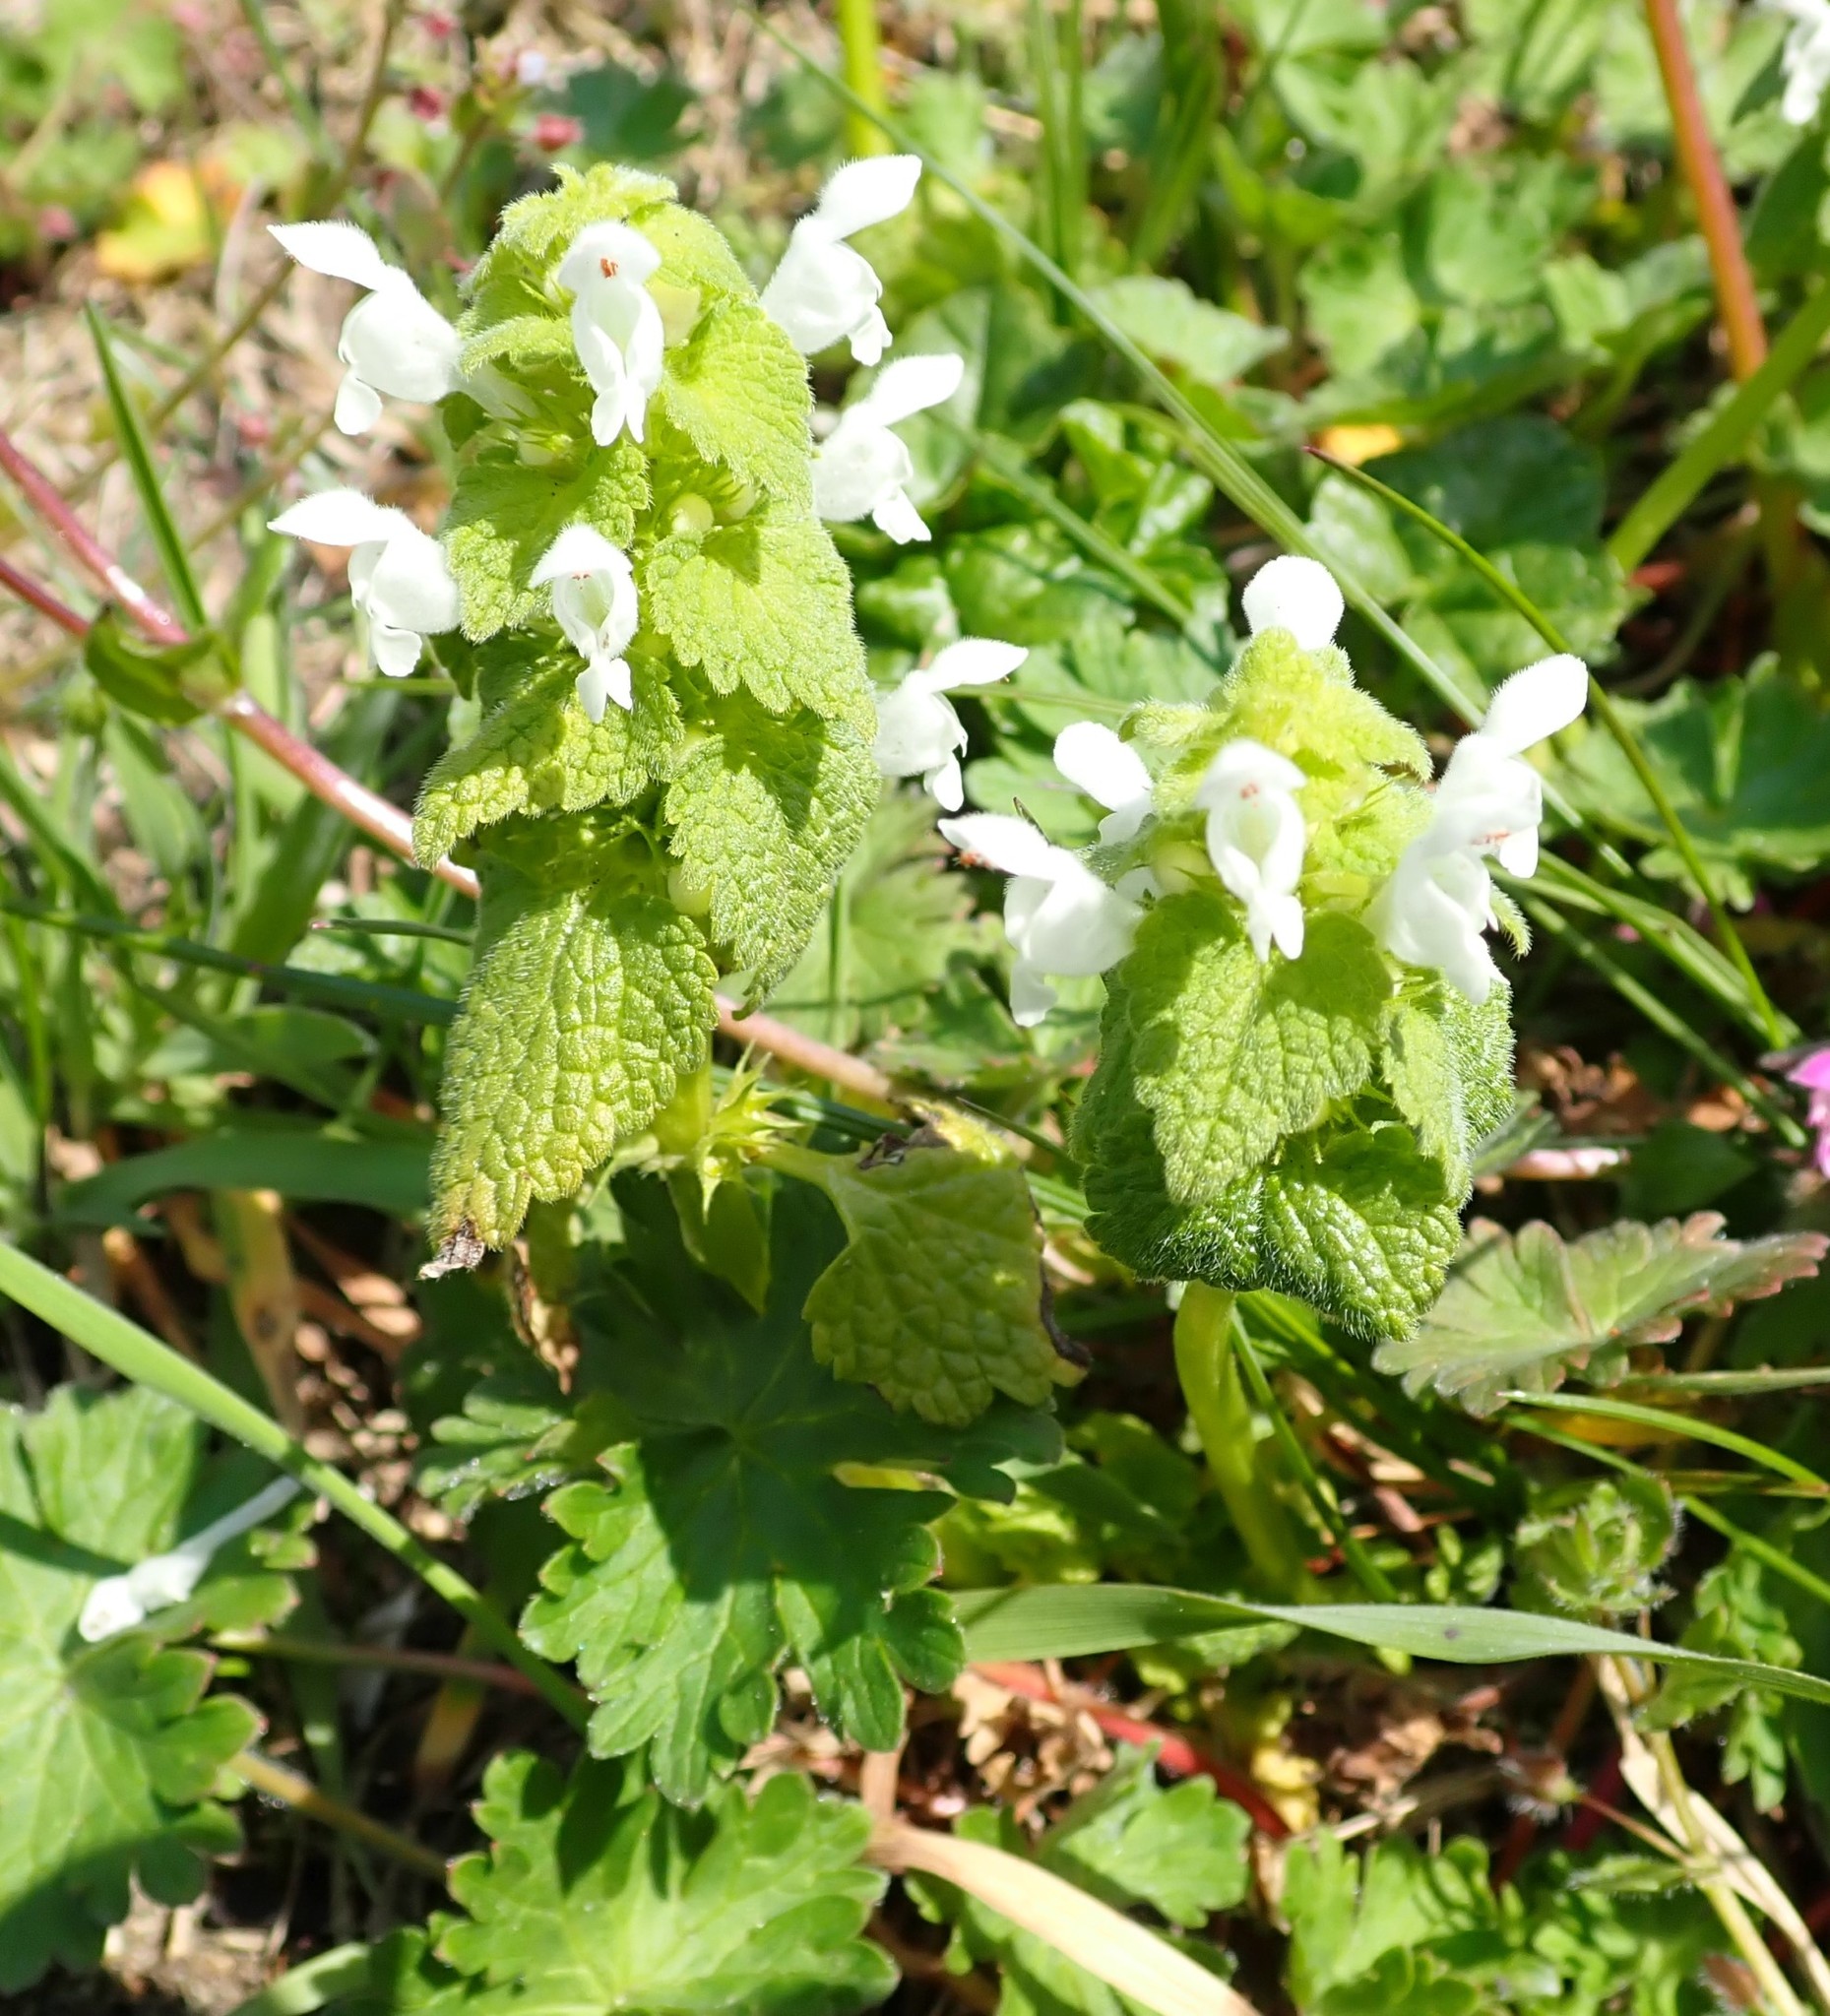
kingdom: Plantae
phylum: Tracheophyta
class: Magnoliopsida
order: Lamiales
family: Lamiaceae
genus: Lamium
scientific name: Lamium purpureum
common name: Red dead-nettle
